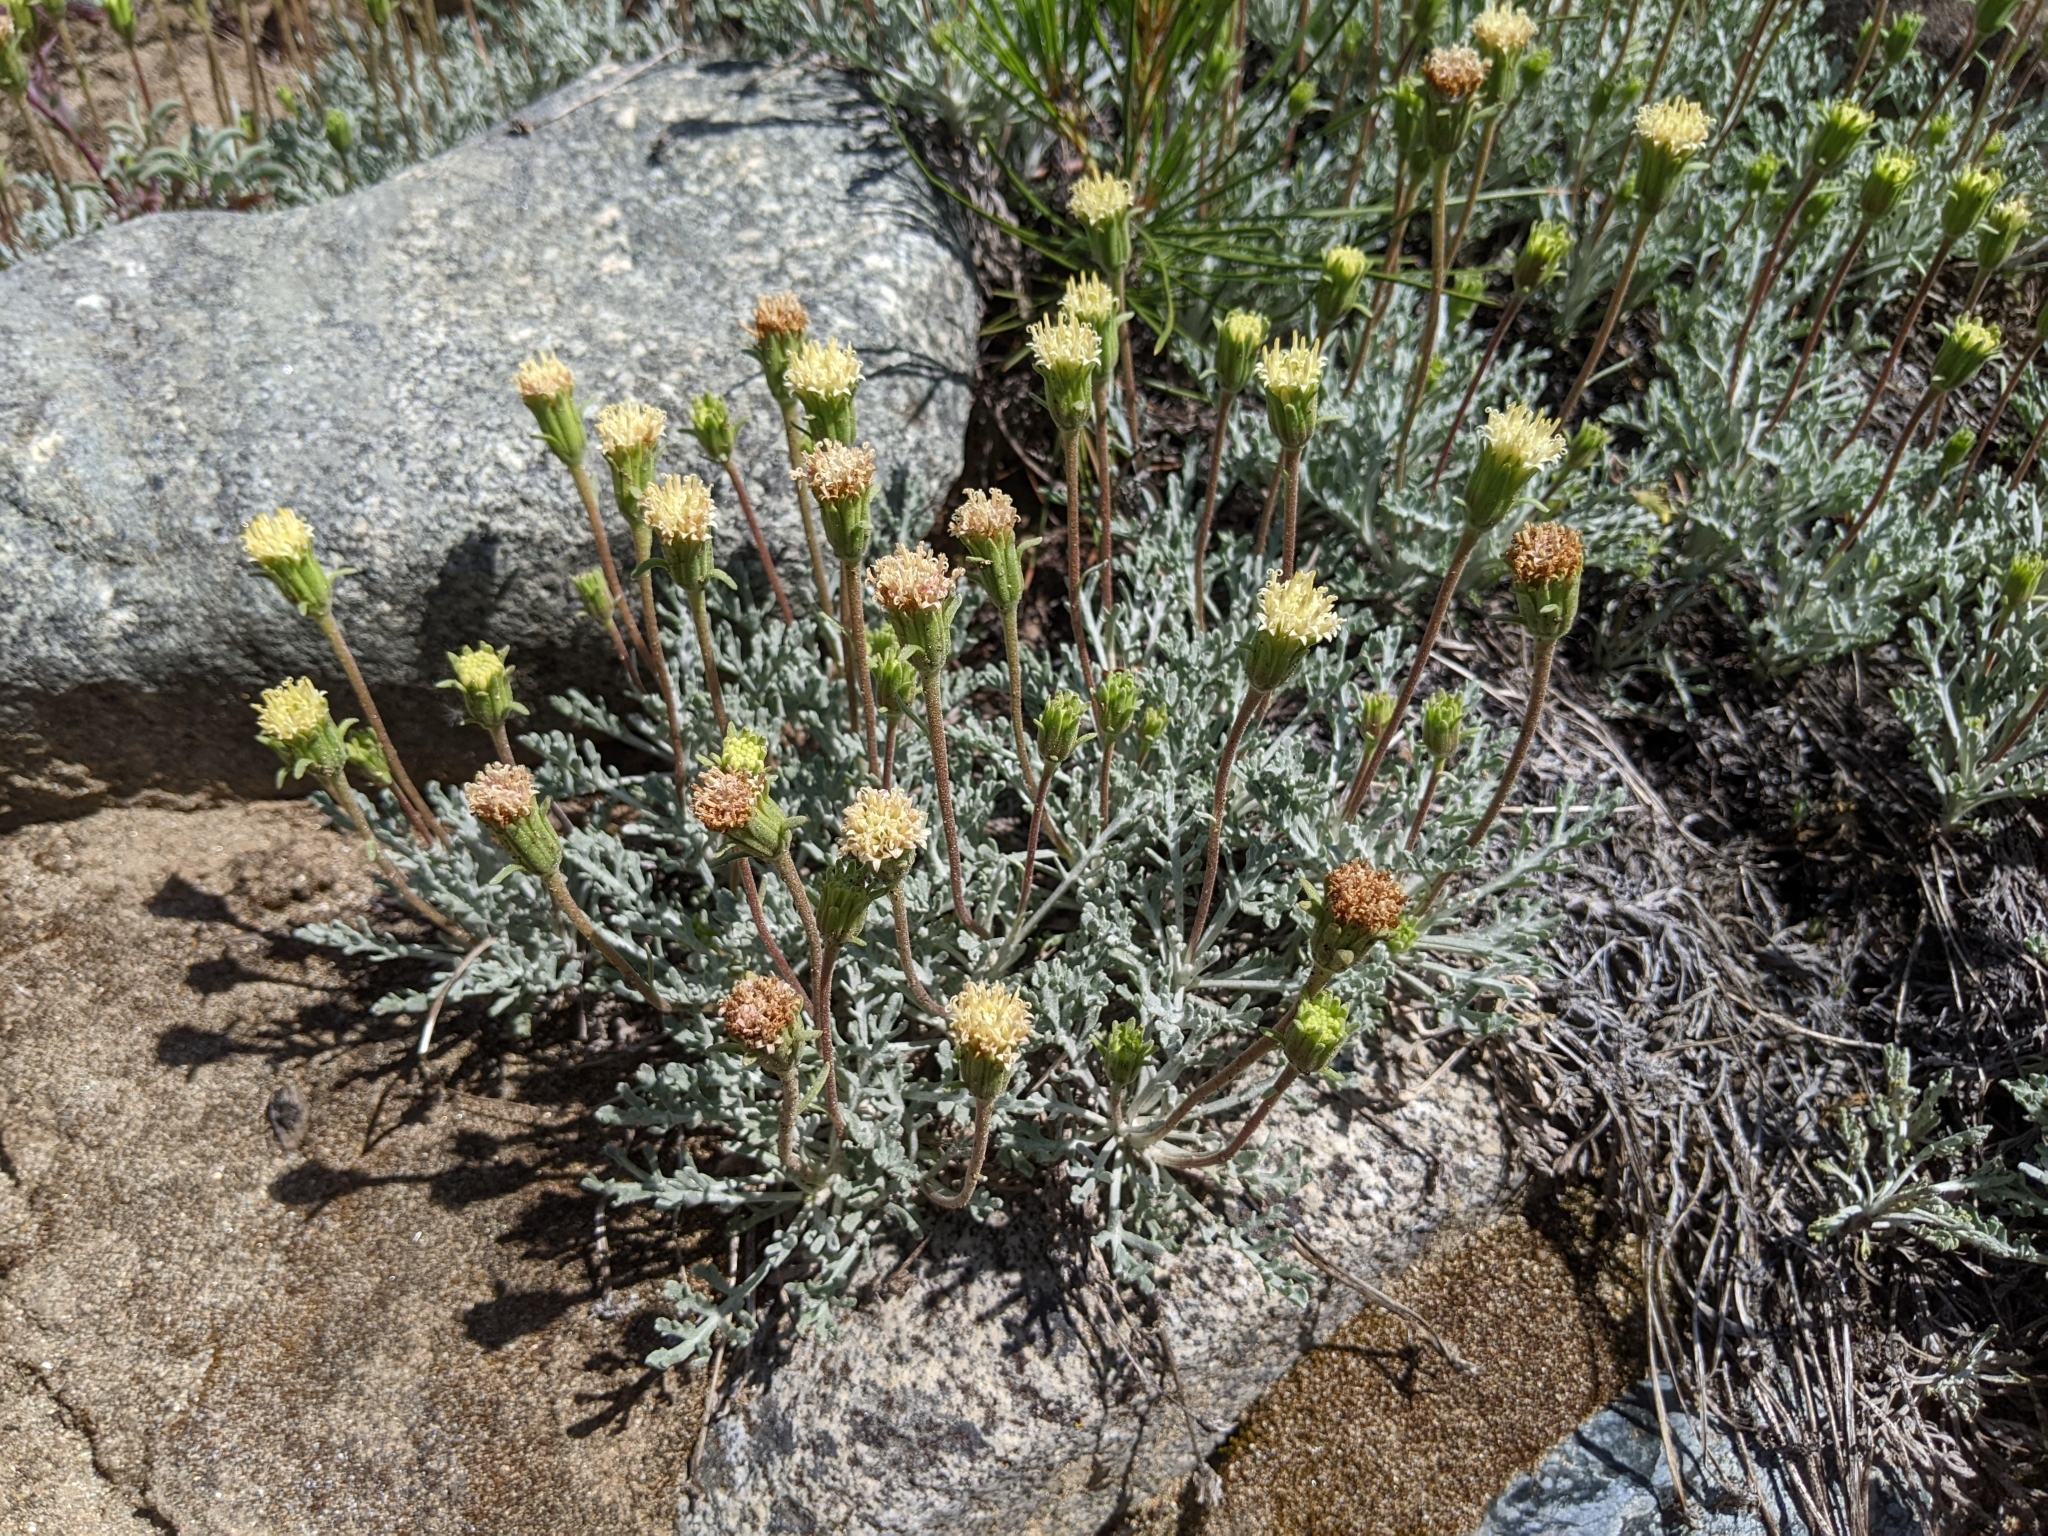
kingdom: Plantae
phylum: Tracheophyta
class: Magnoliopsida
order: Asterales
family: Asteraceae
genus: Chaenactis
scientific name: Chaenactis suffrutescens
